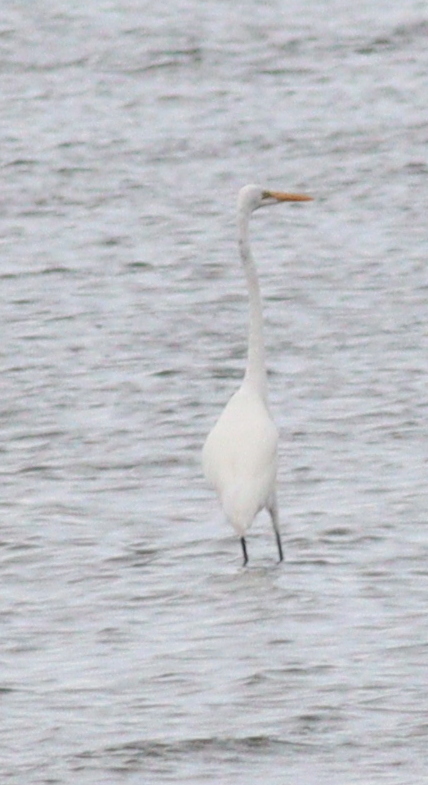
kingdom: Animalia
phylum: Chordata
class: Aves
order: Pelecaniformes
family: Ardeidae
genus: Ardea
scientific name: Ardea alba
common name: Great egret
